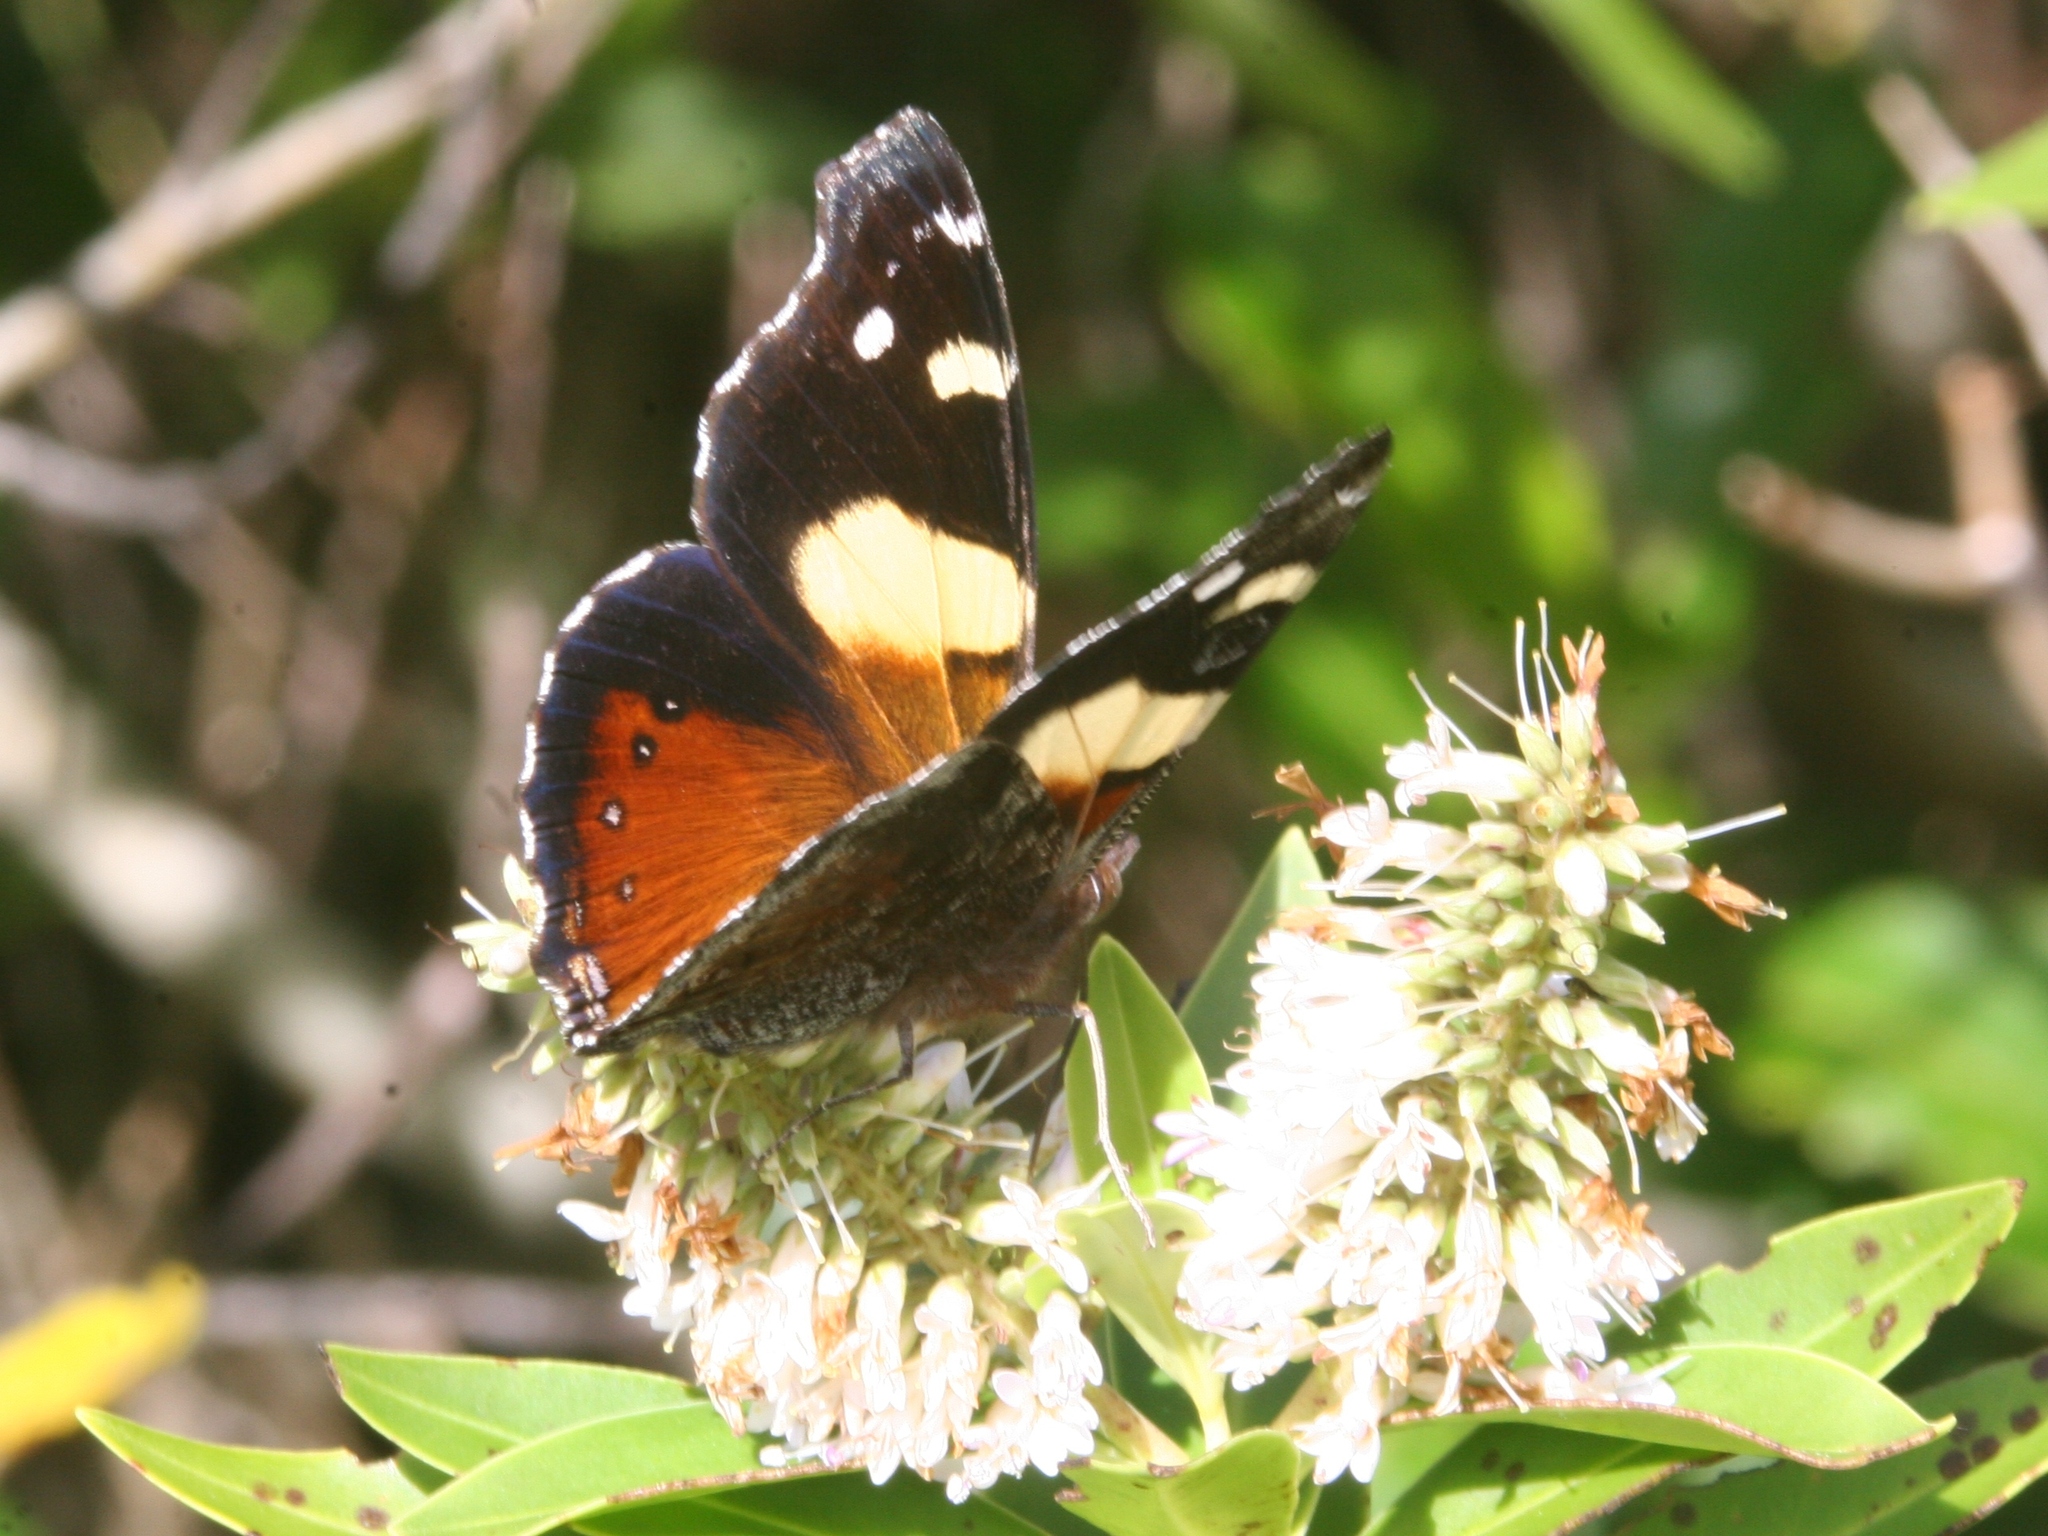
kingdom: Animalia
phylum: Arthropoda
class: Insecta
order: Lepidoptera
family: Nymphalidae
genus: Vanessa
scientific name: Vanessa itea
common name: Yellow admiral
